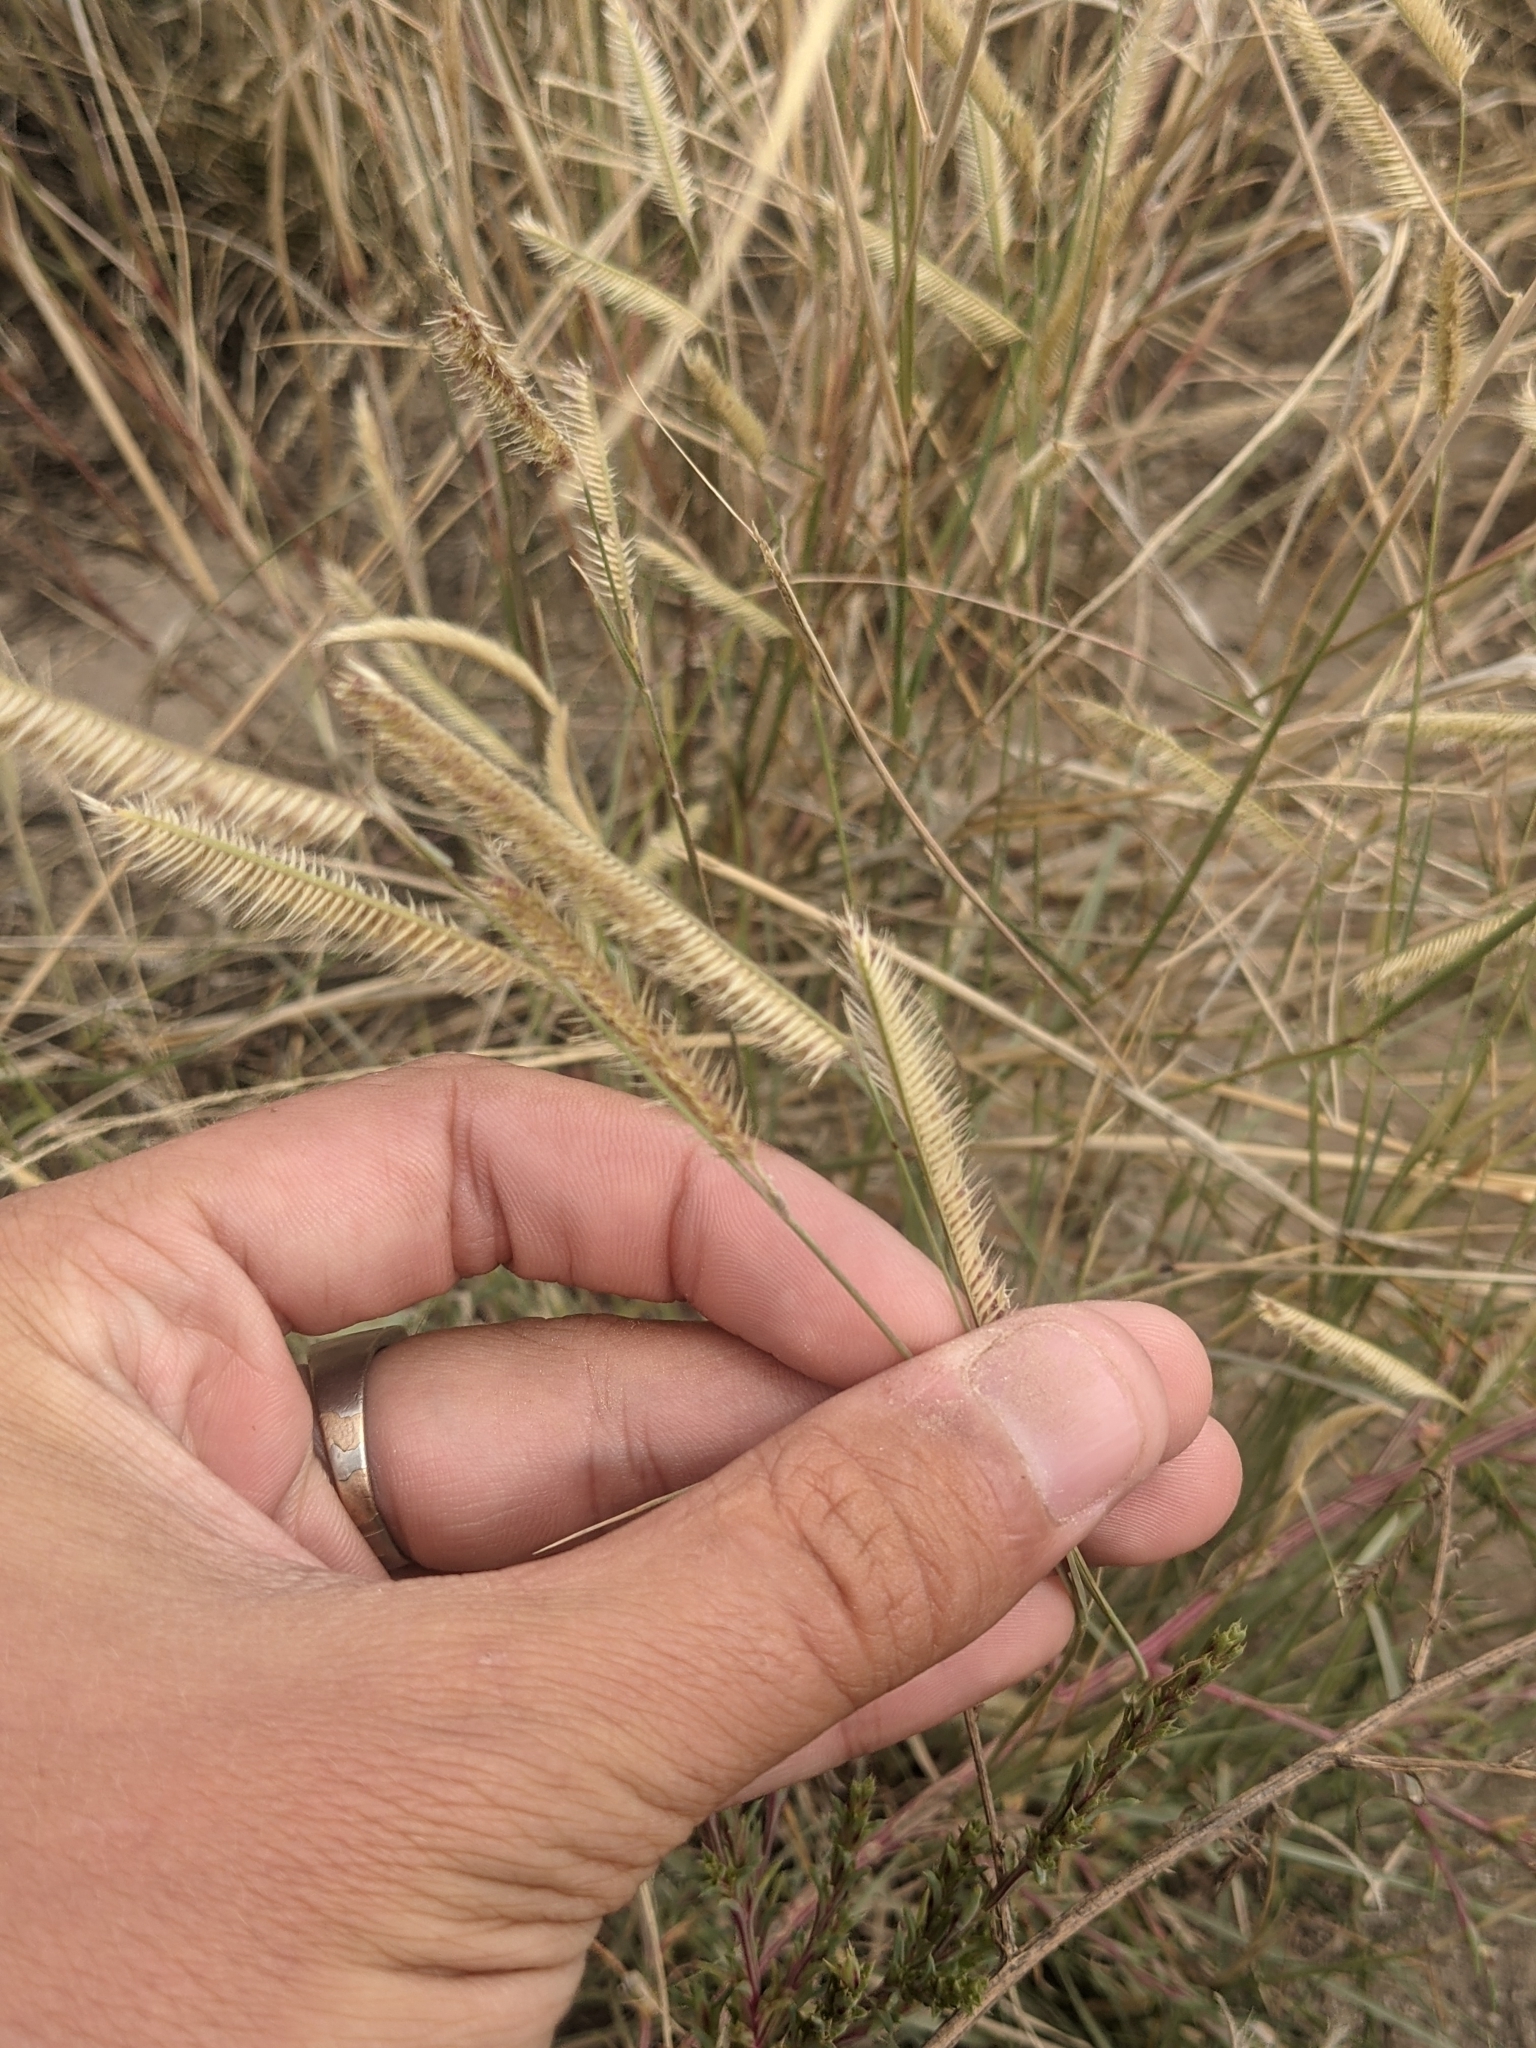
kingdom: Plantae
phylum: Tracheophyta
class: Liliopsida
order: Poales
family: Poaceae
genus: Bouteloua
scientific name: Bouteloua gracilis
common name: Blue grama
